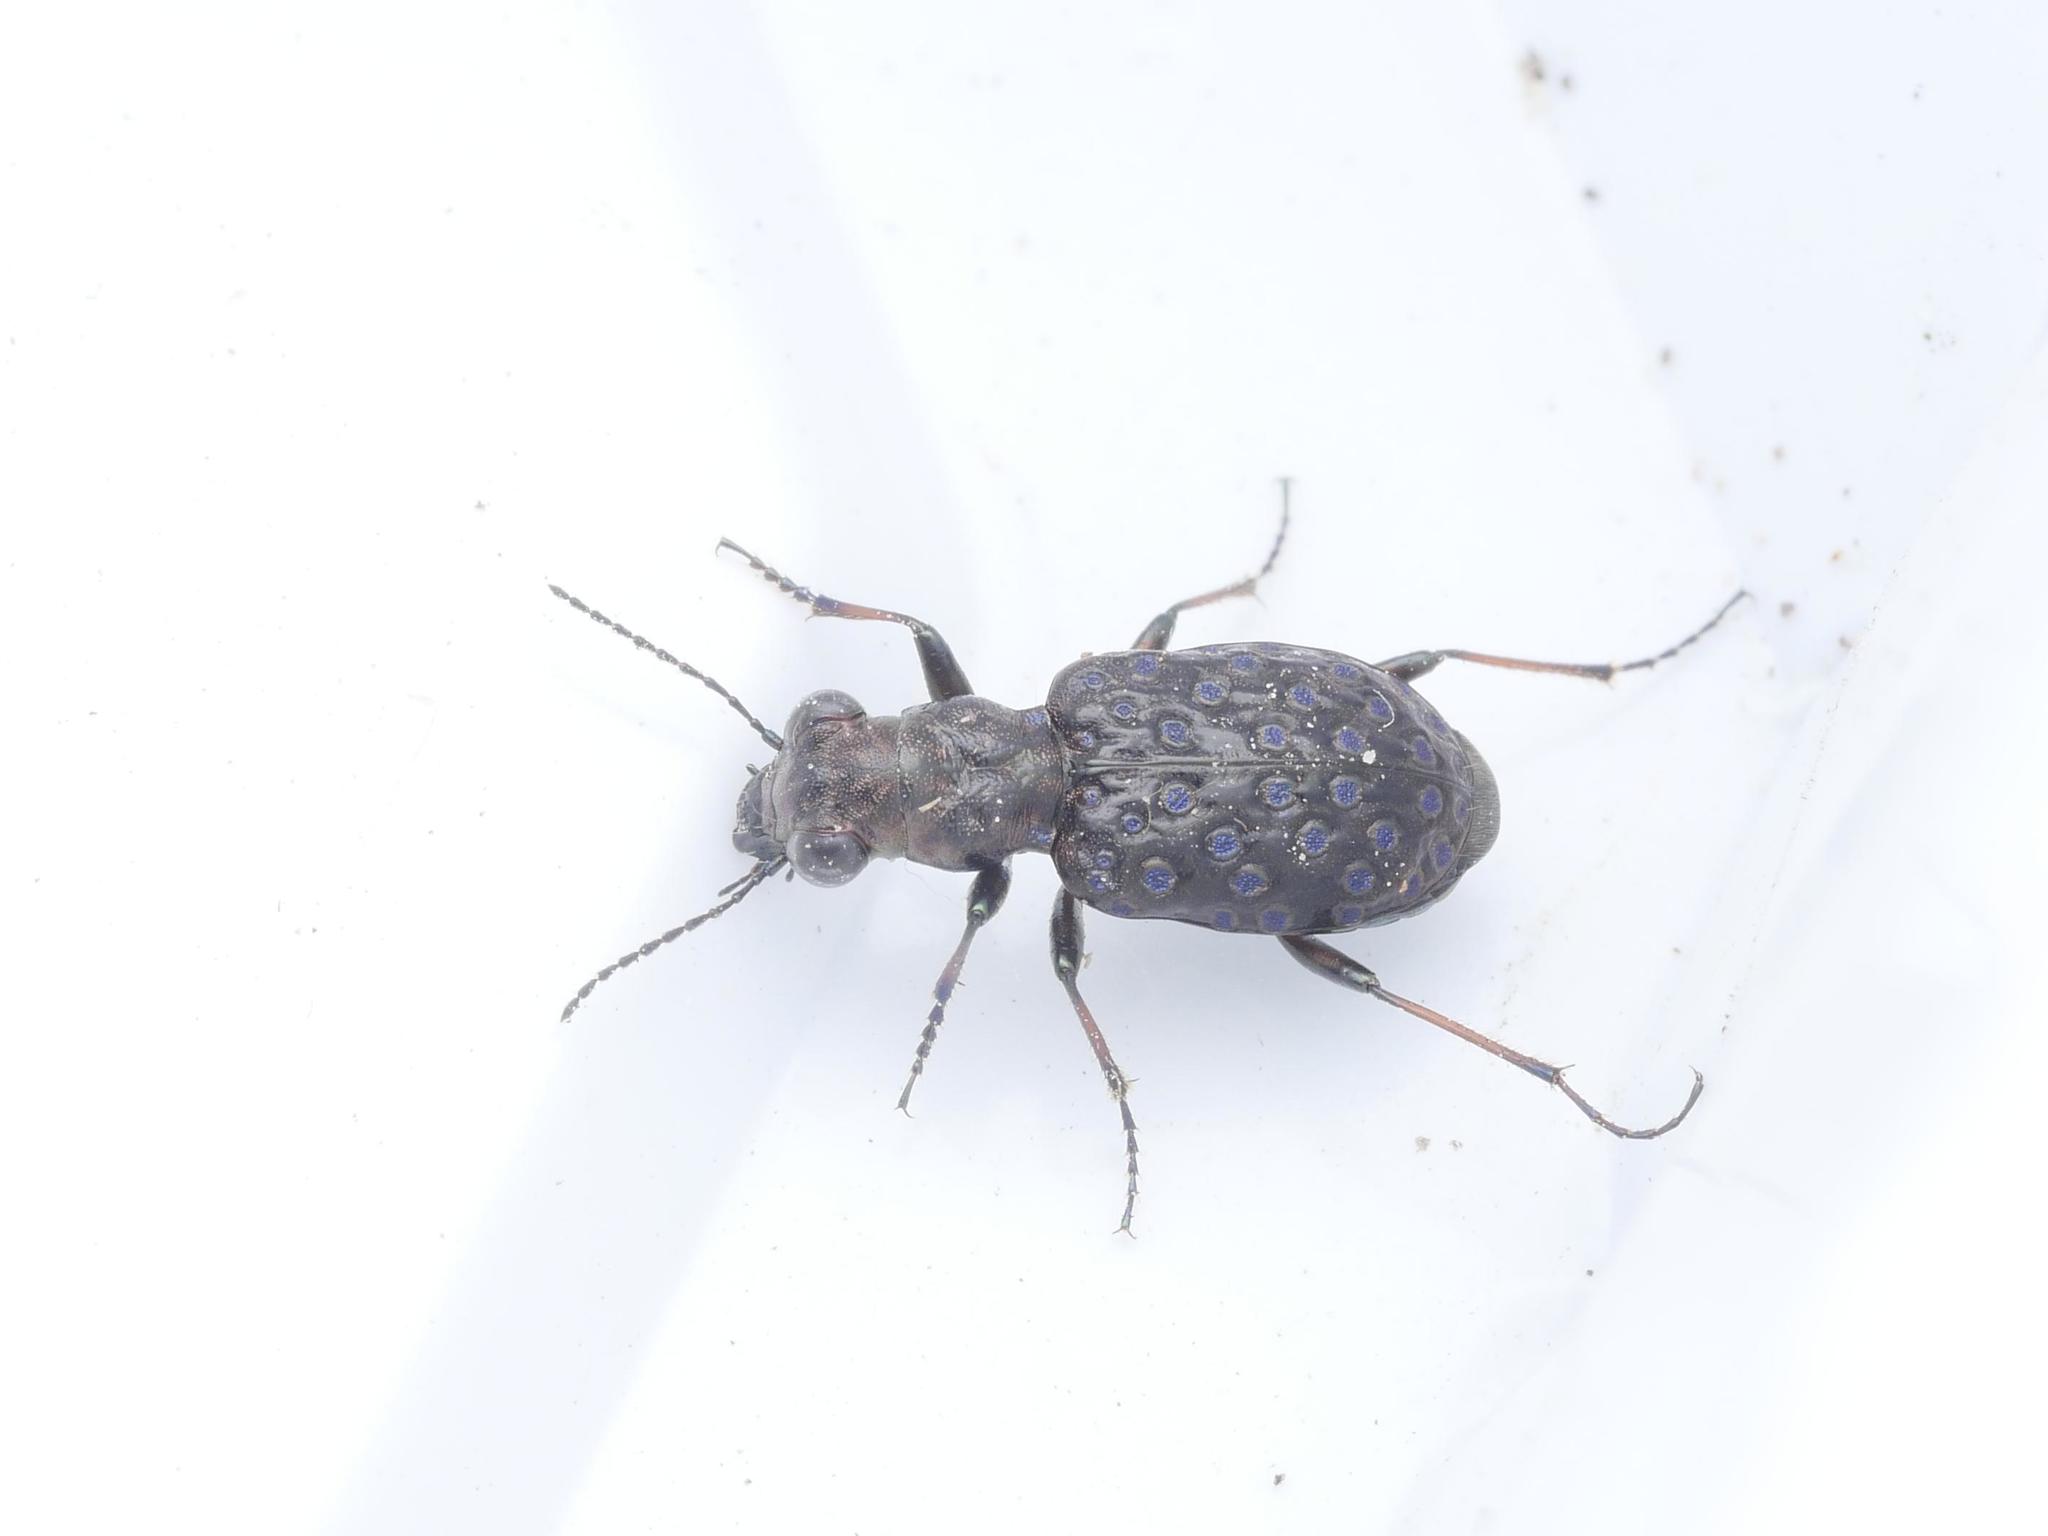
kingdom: Animalia
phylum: Arthropoda
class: Insecta
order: Coleoptera
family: Carabidae
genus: Elaphrus
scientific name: Elaphrus cupreus
